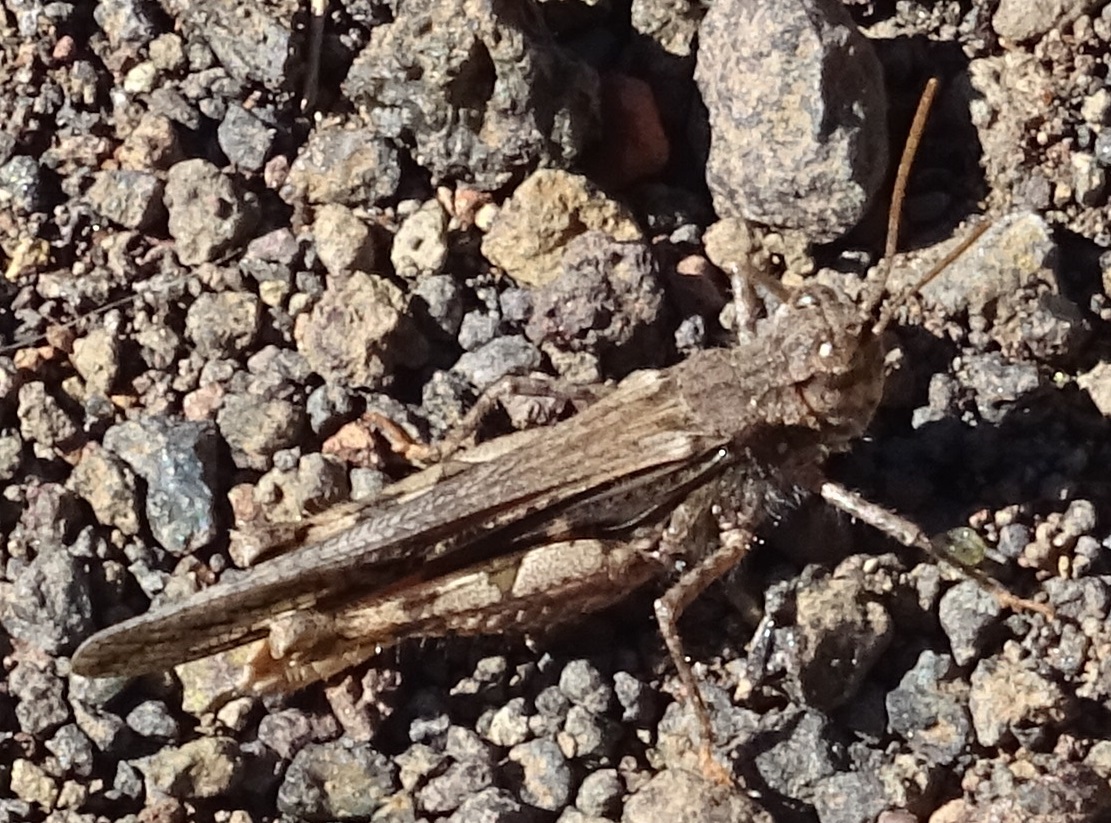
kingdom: Animalia
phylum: Arthropoda
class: Insecta
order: Orthoptera
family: Acrididae
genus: Acrotylus
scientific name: Acrotylus insubricus
